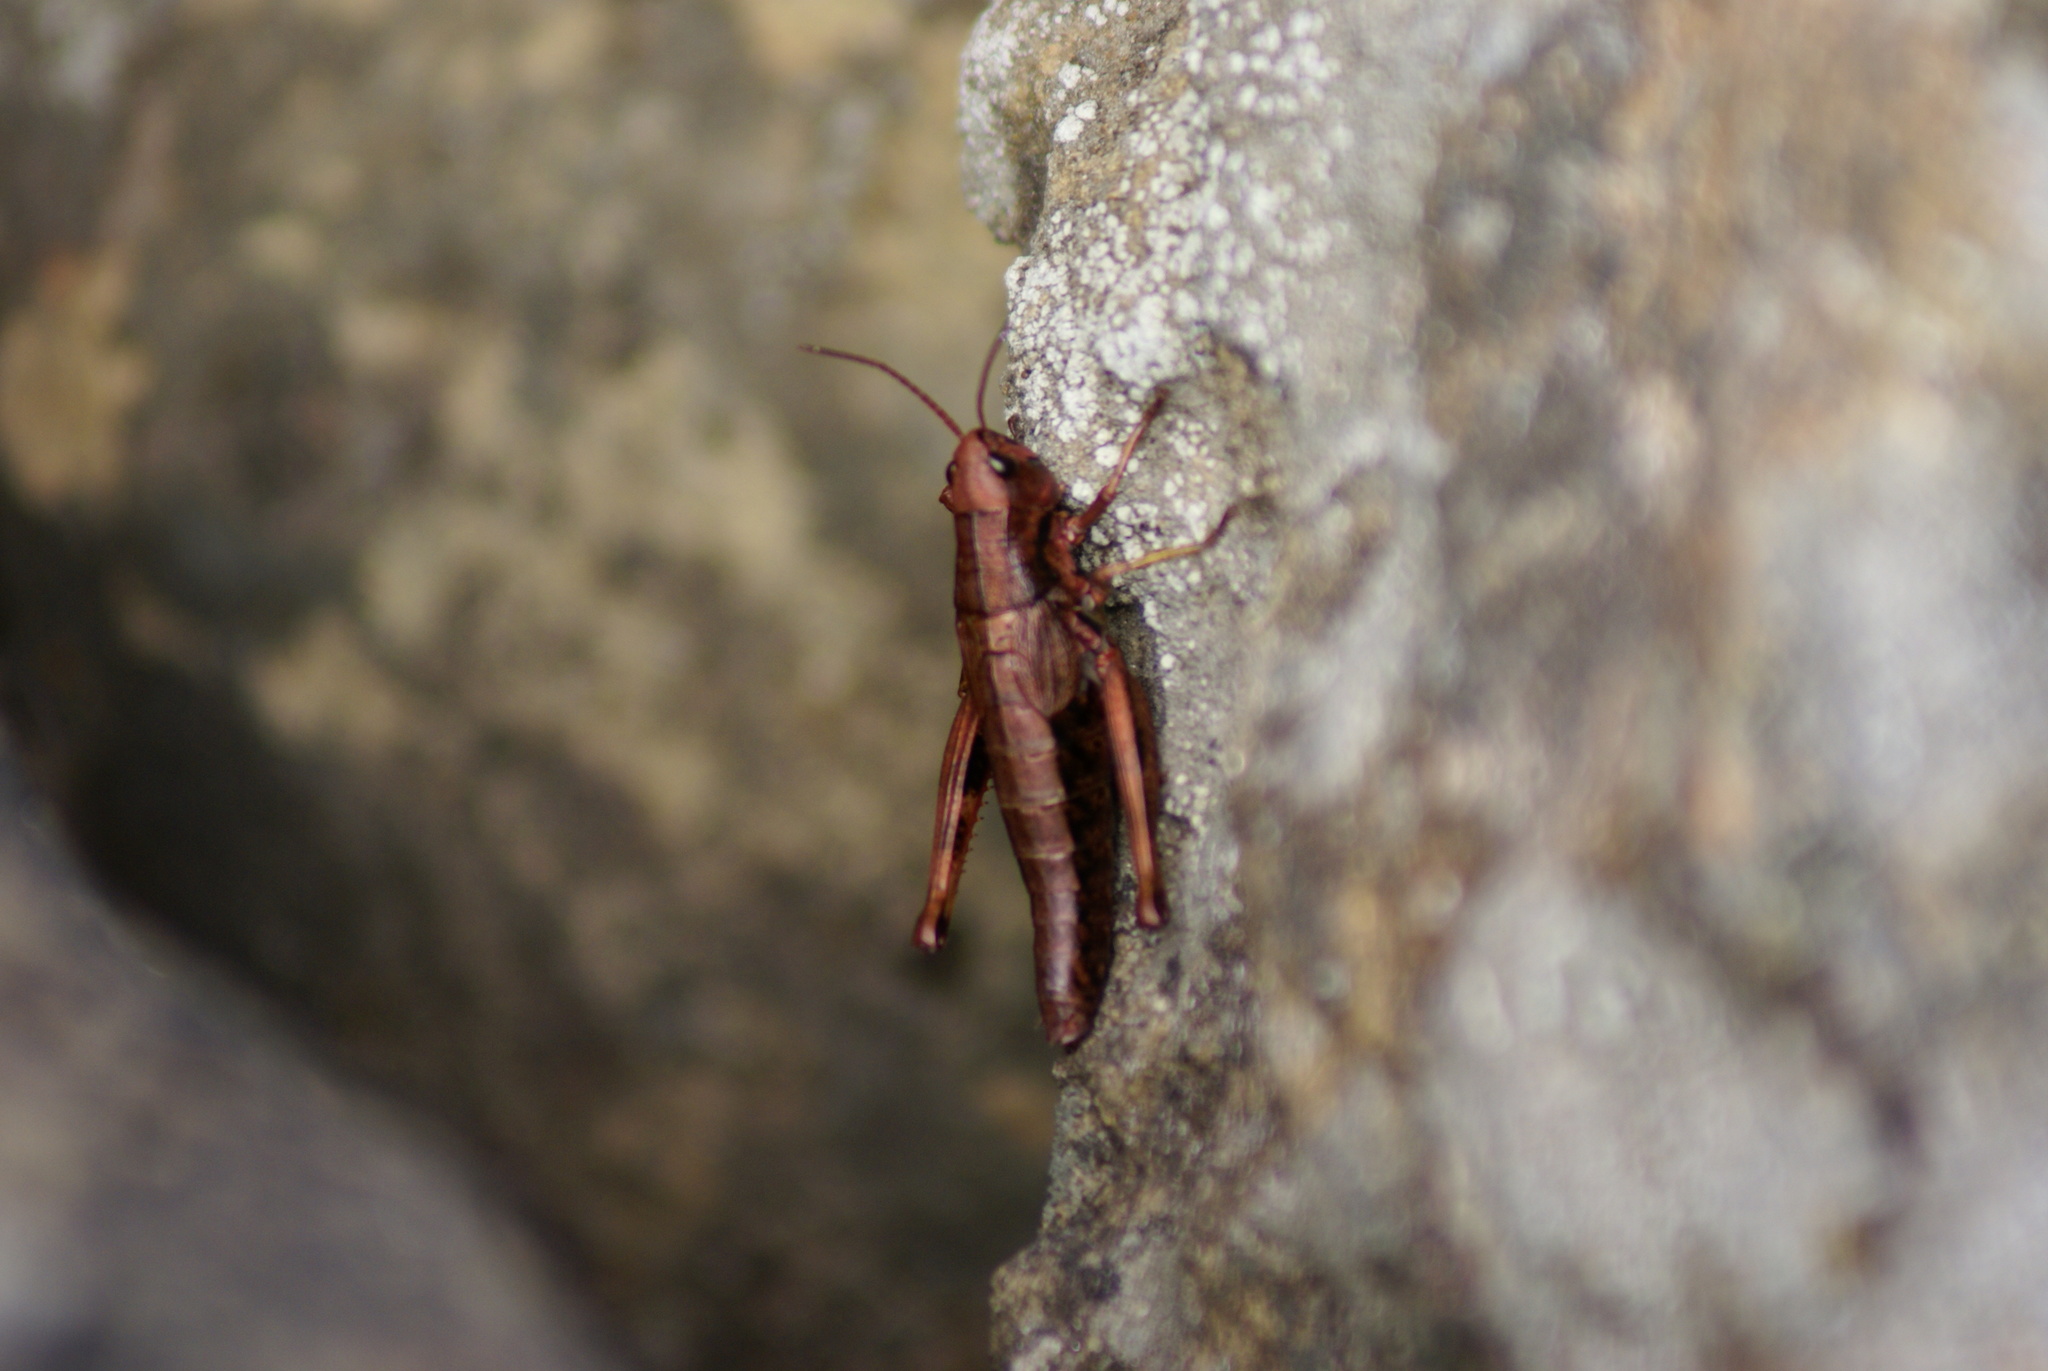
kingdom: Animalia
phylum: Arthropoda
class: Insecta
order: Orthoptera
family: Acrididae
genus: Podismopsis
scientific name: Podismopsis poppiusi
